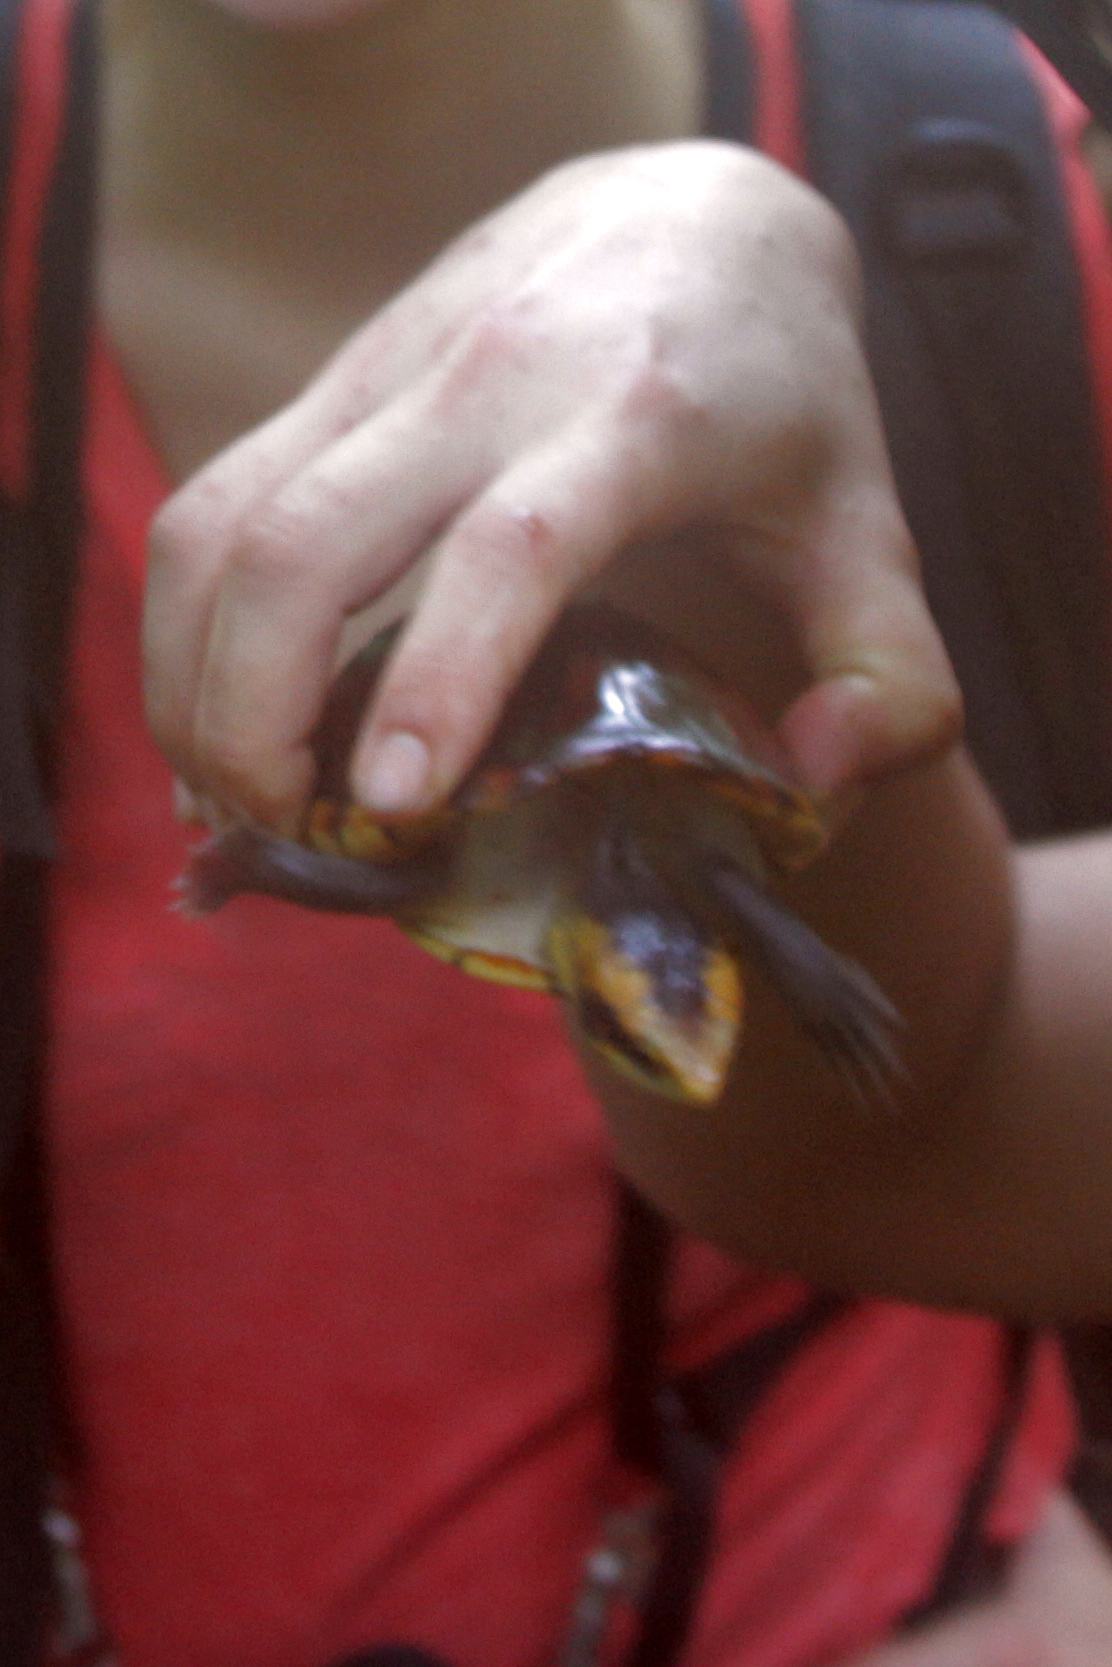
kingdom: Animalia
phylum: Chordata
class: Testudines
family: Kinosternidae
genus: Kinosternon
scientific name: Kinosternon leucostomum
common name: White-lipped mud turtle
